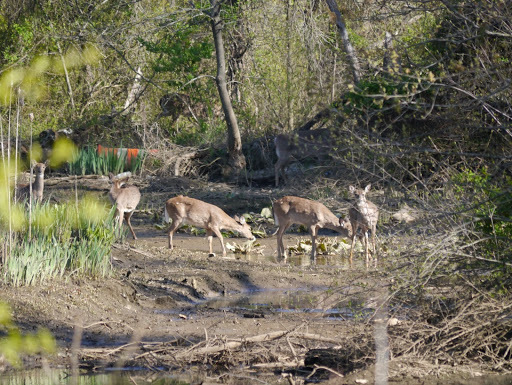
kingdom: Animalia
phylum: Chordata
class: Mammalia
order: Artiodactyla
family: Cervidae
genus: Odocoileus
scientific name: Odocoileus virginianus
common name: White-tailed deer
